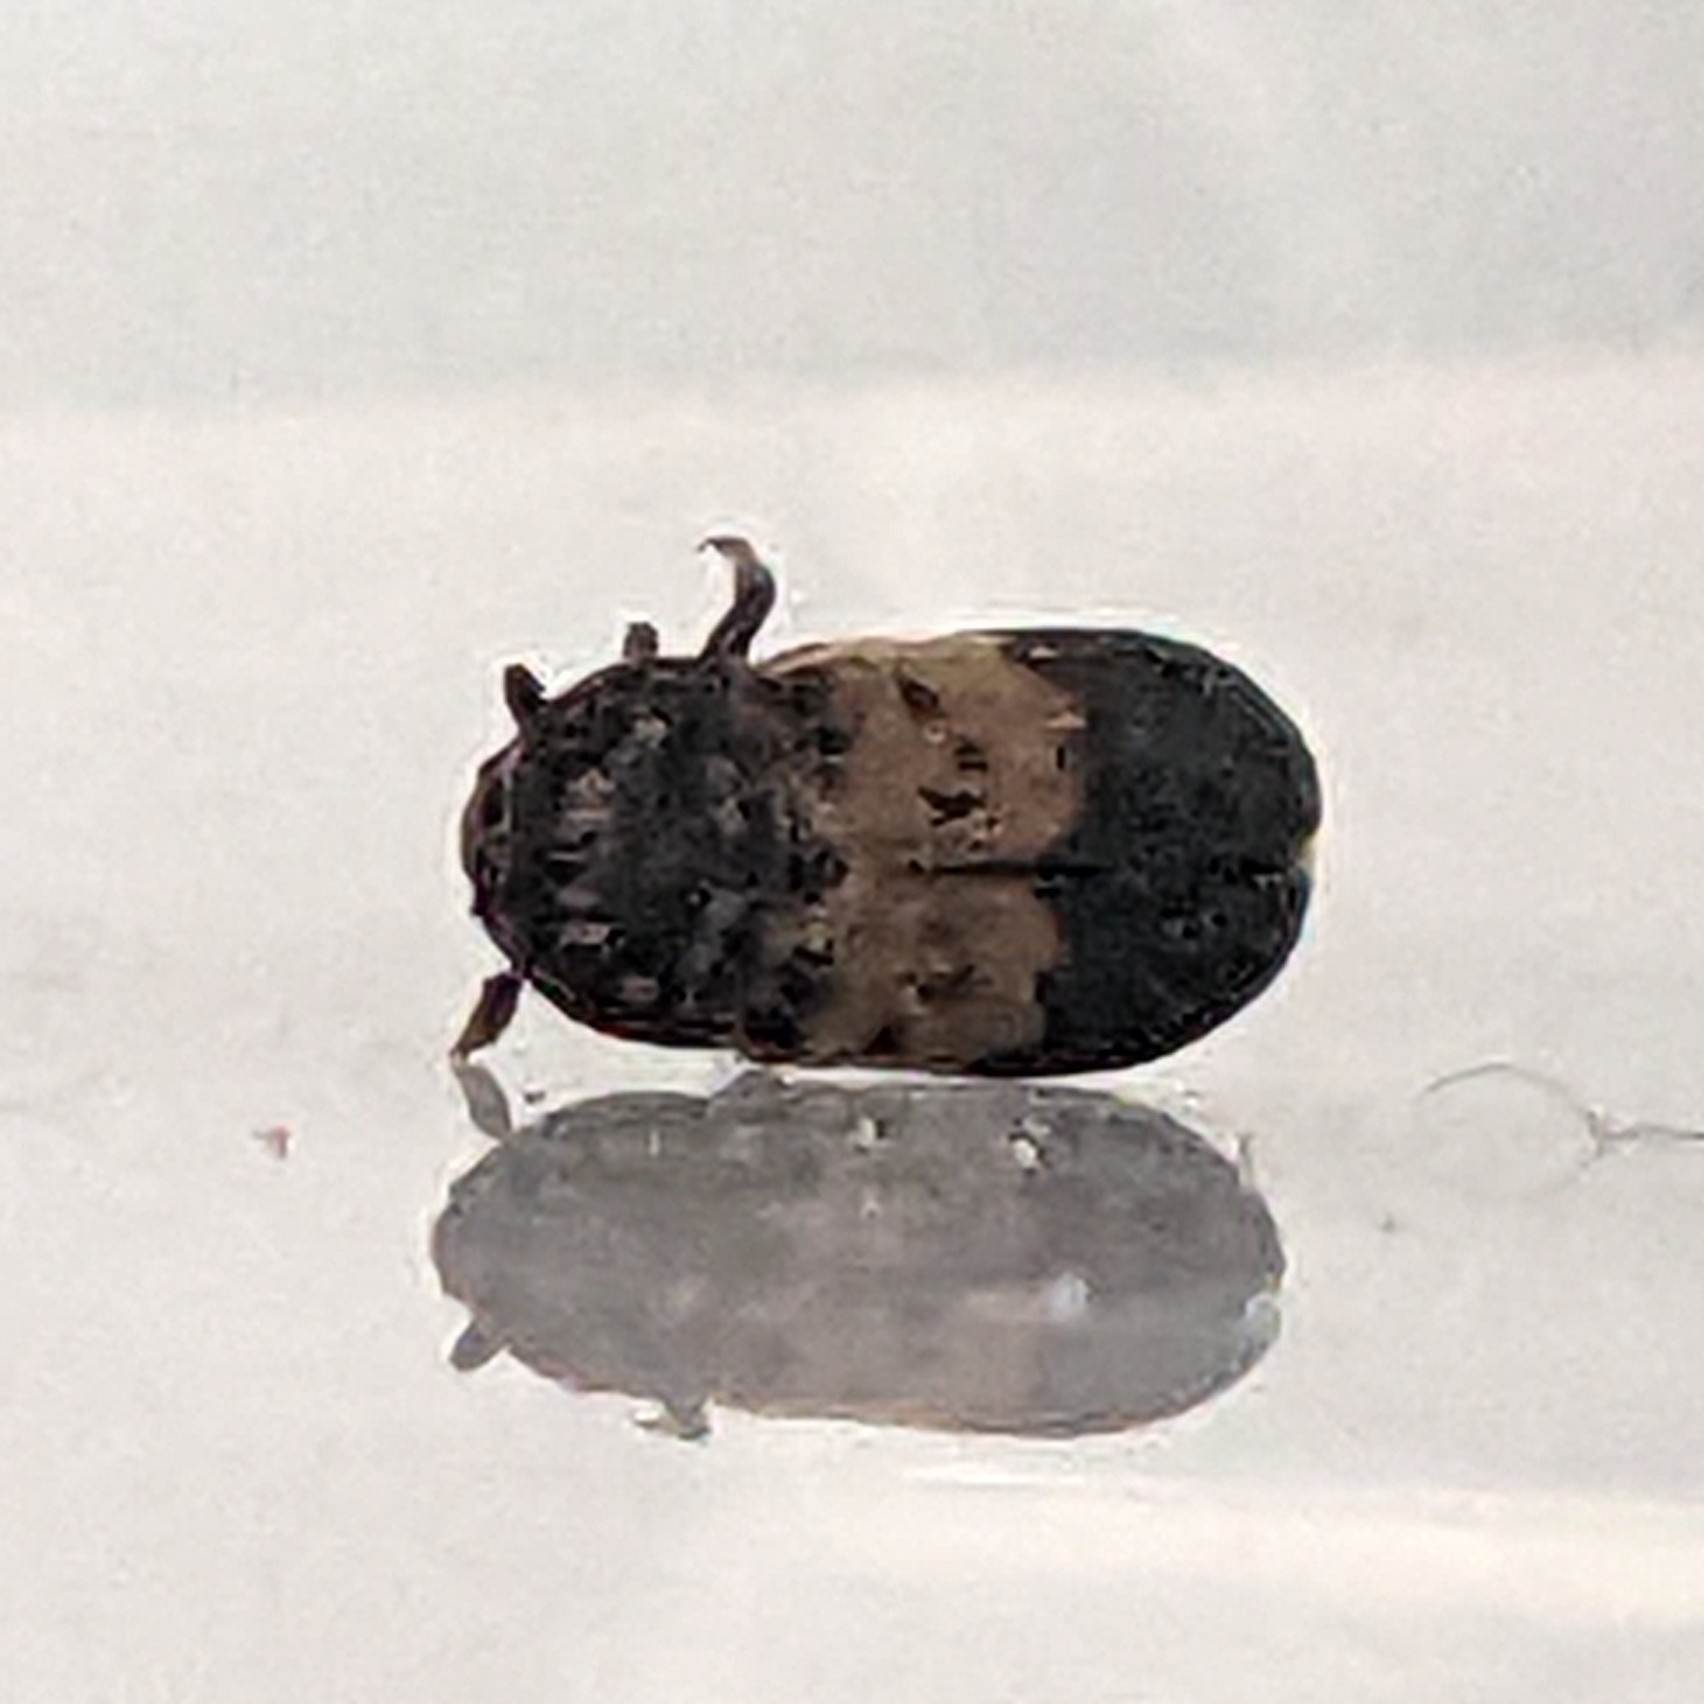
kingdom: Animalia
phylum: Arthropoda
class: Insecta
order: Coleoptera
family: Dermestidae
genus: Dermestes
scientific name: Dermestes lardarius
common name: Larder beetle
